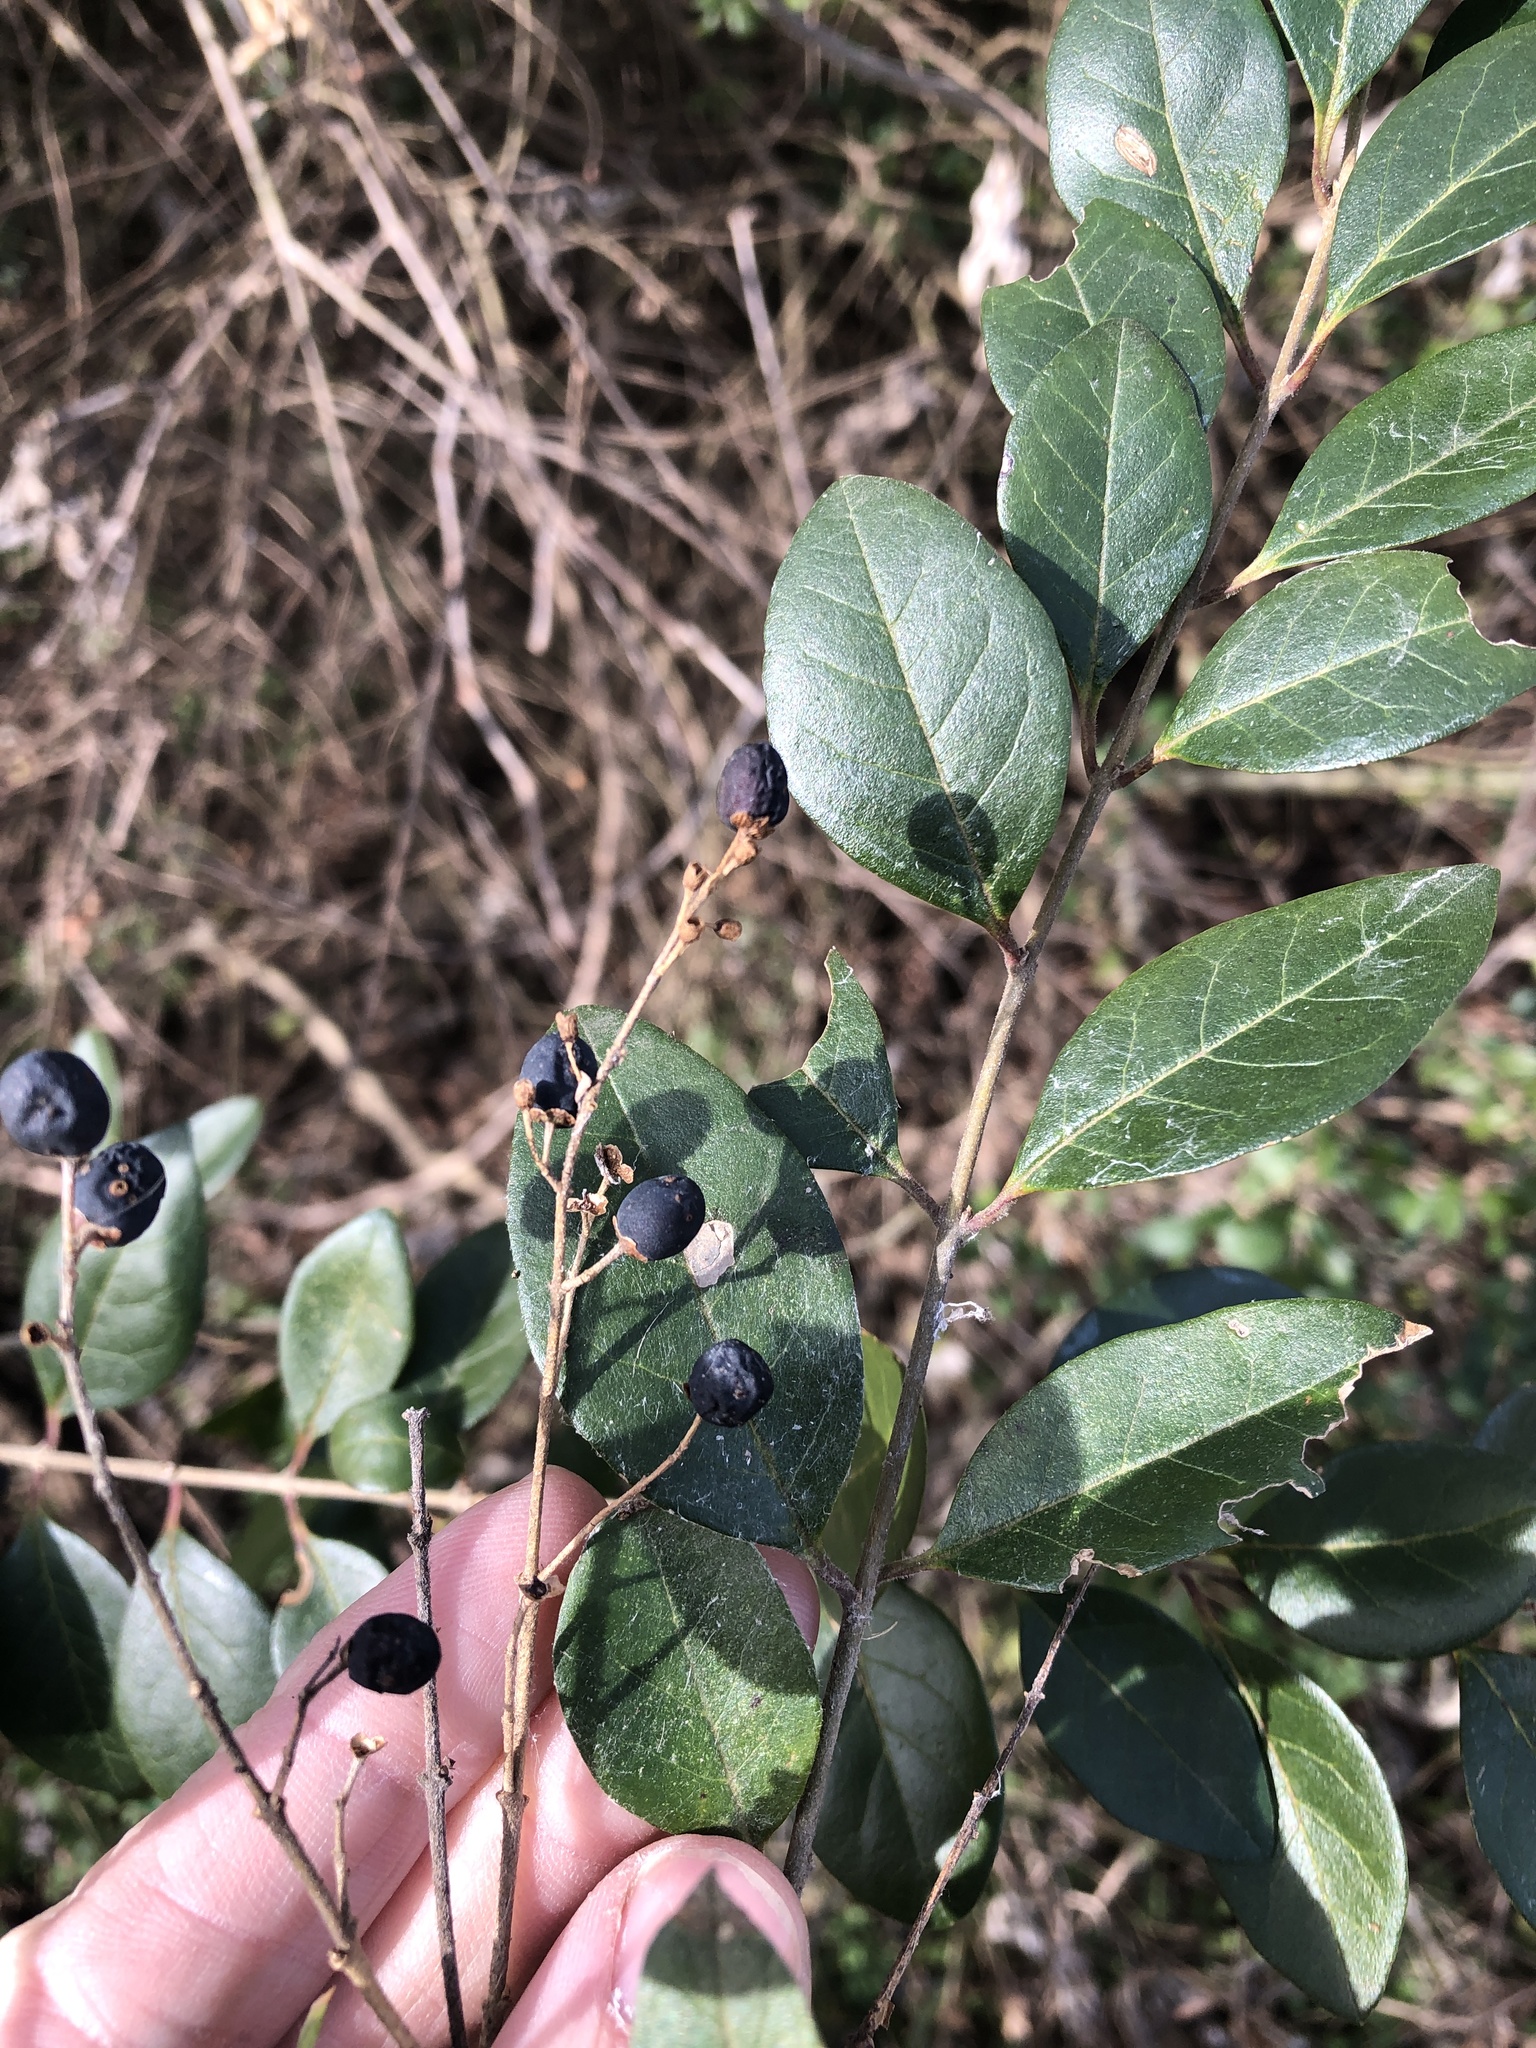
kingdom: Plantae
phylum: Tracheophyta
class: Magnoliopsida
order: Lamiales
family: Oleaceae
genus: Ligustrum
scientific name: Ligustrum sinense
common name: Chinese privet
